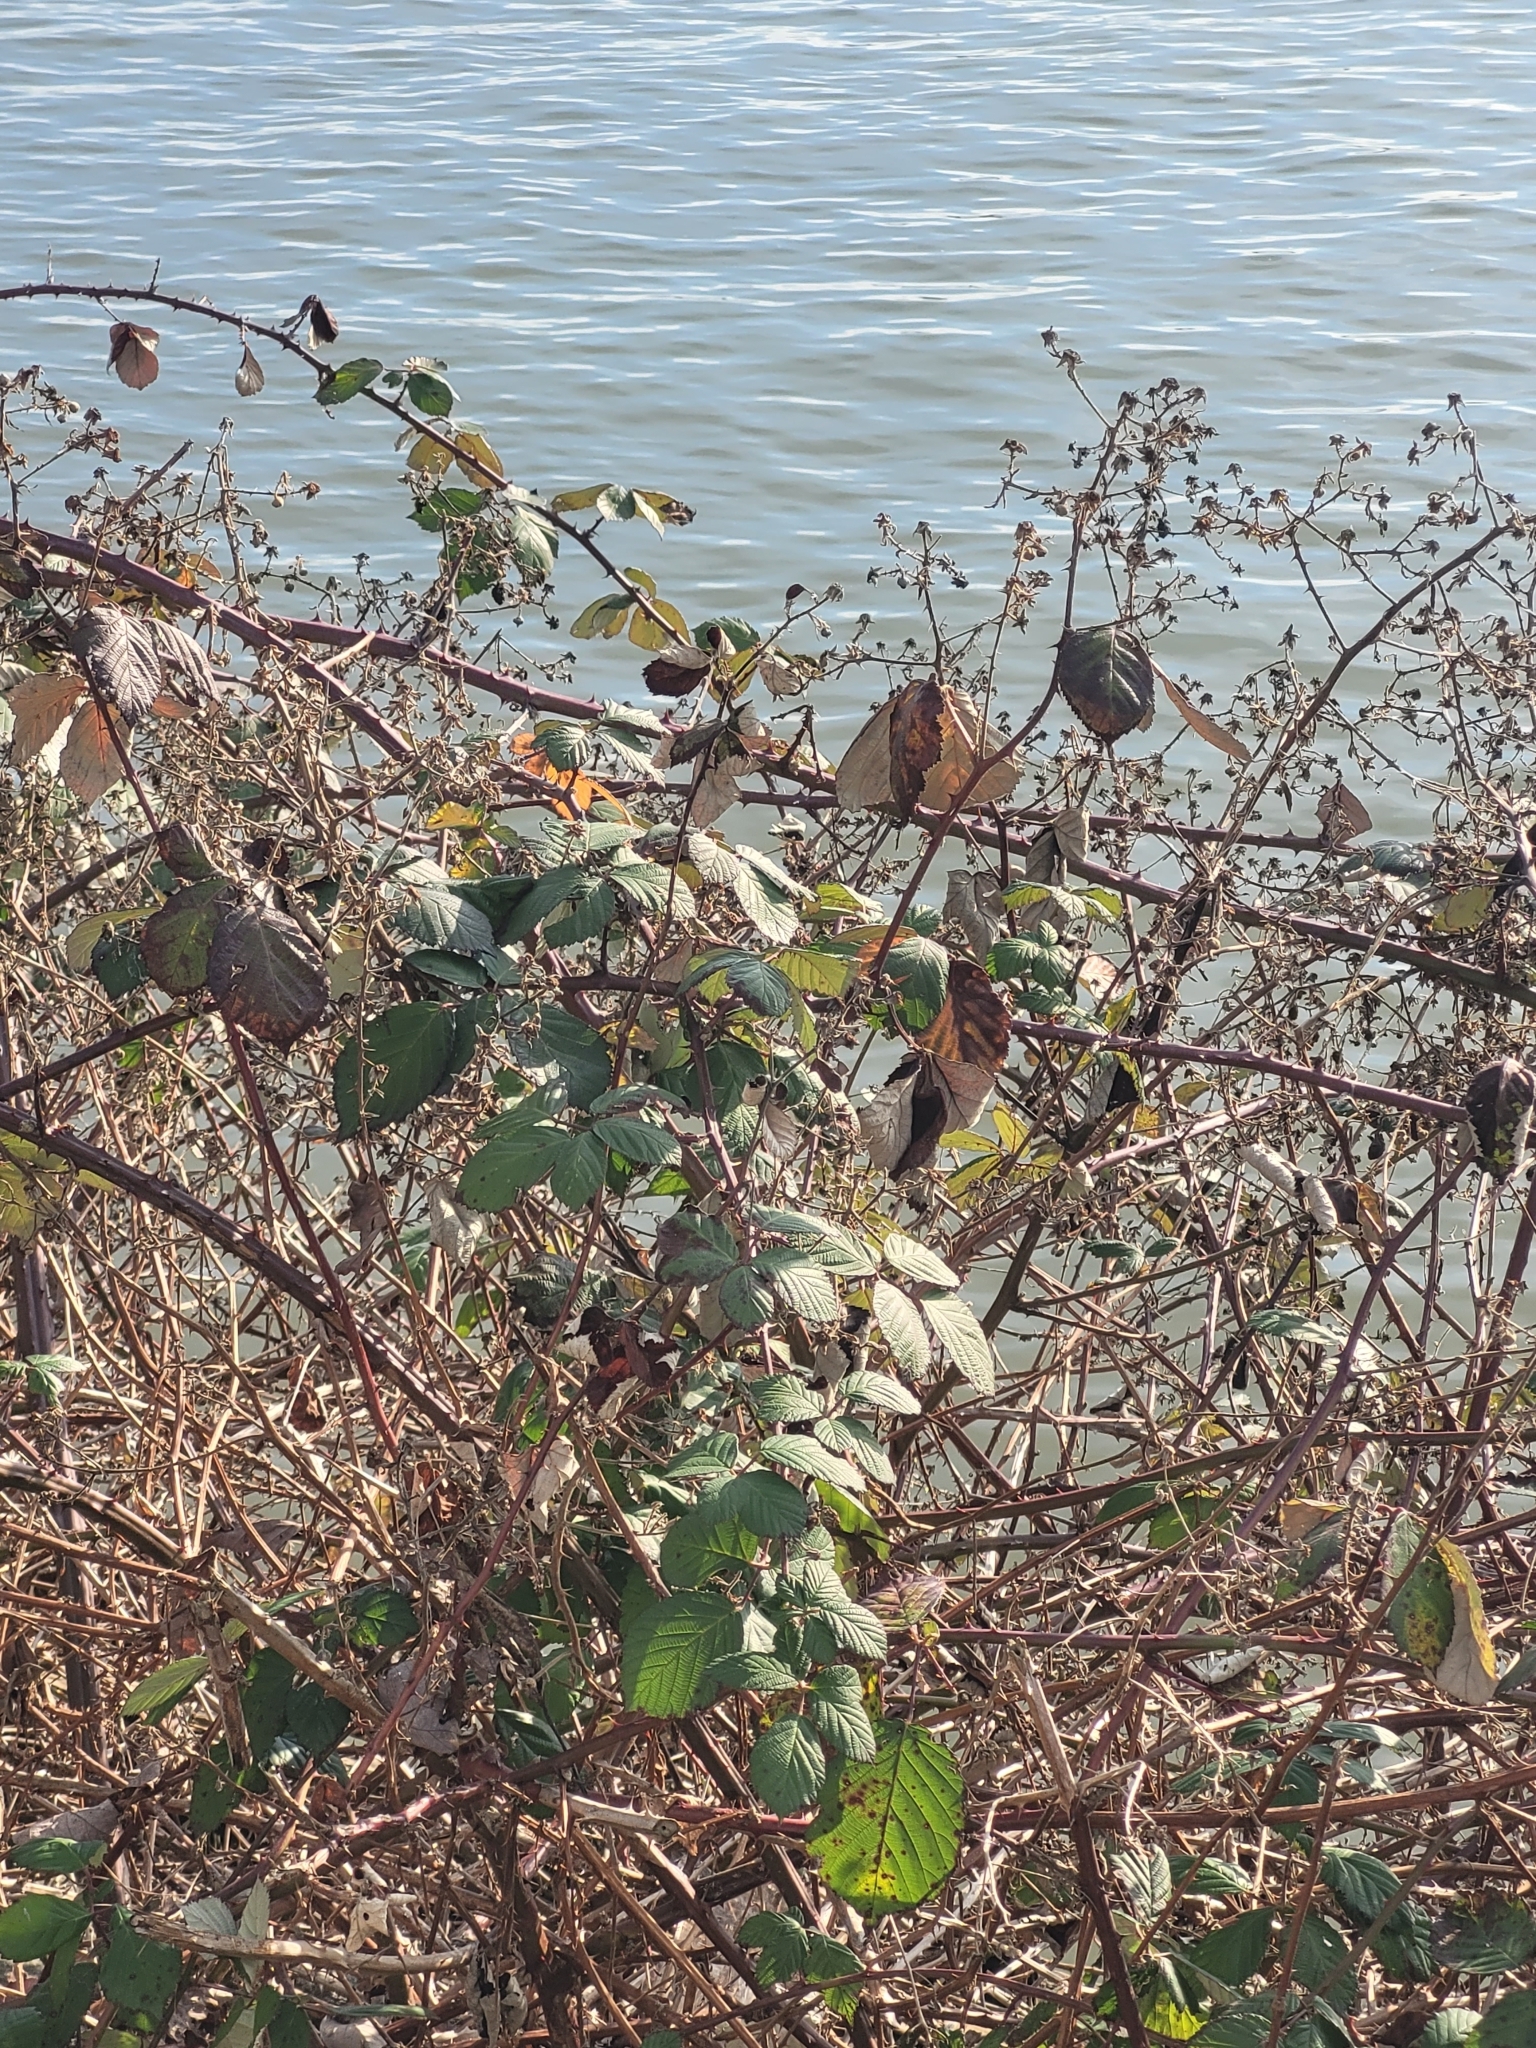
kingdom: Plantae
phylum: Tracheophyta
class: Magnoliopsida
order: Rosales
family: Rosaceae
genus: Rubus
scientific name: Rubus armeniacus
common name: Himalayan blackberry
